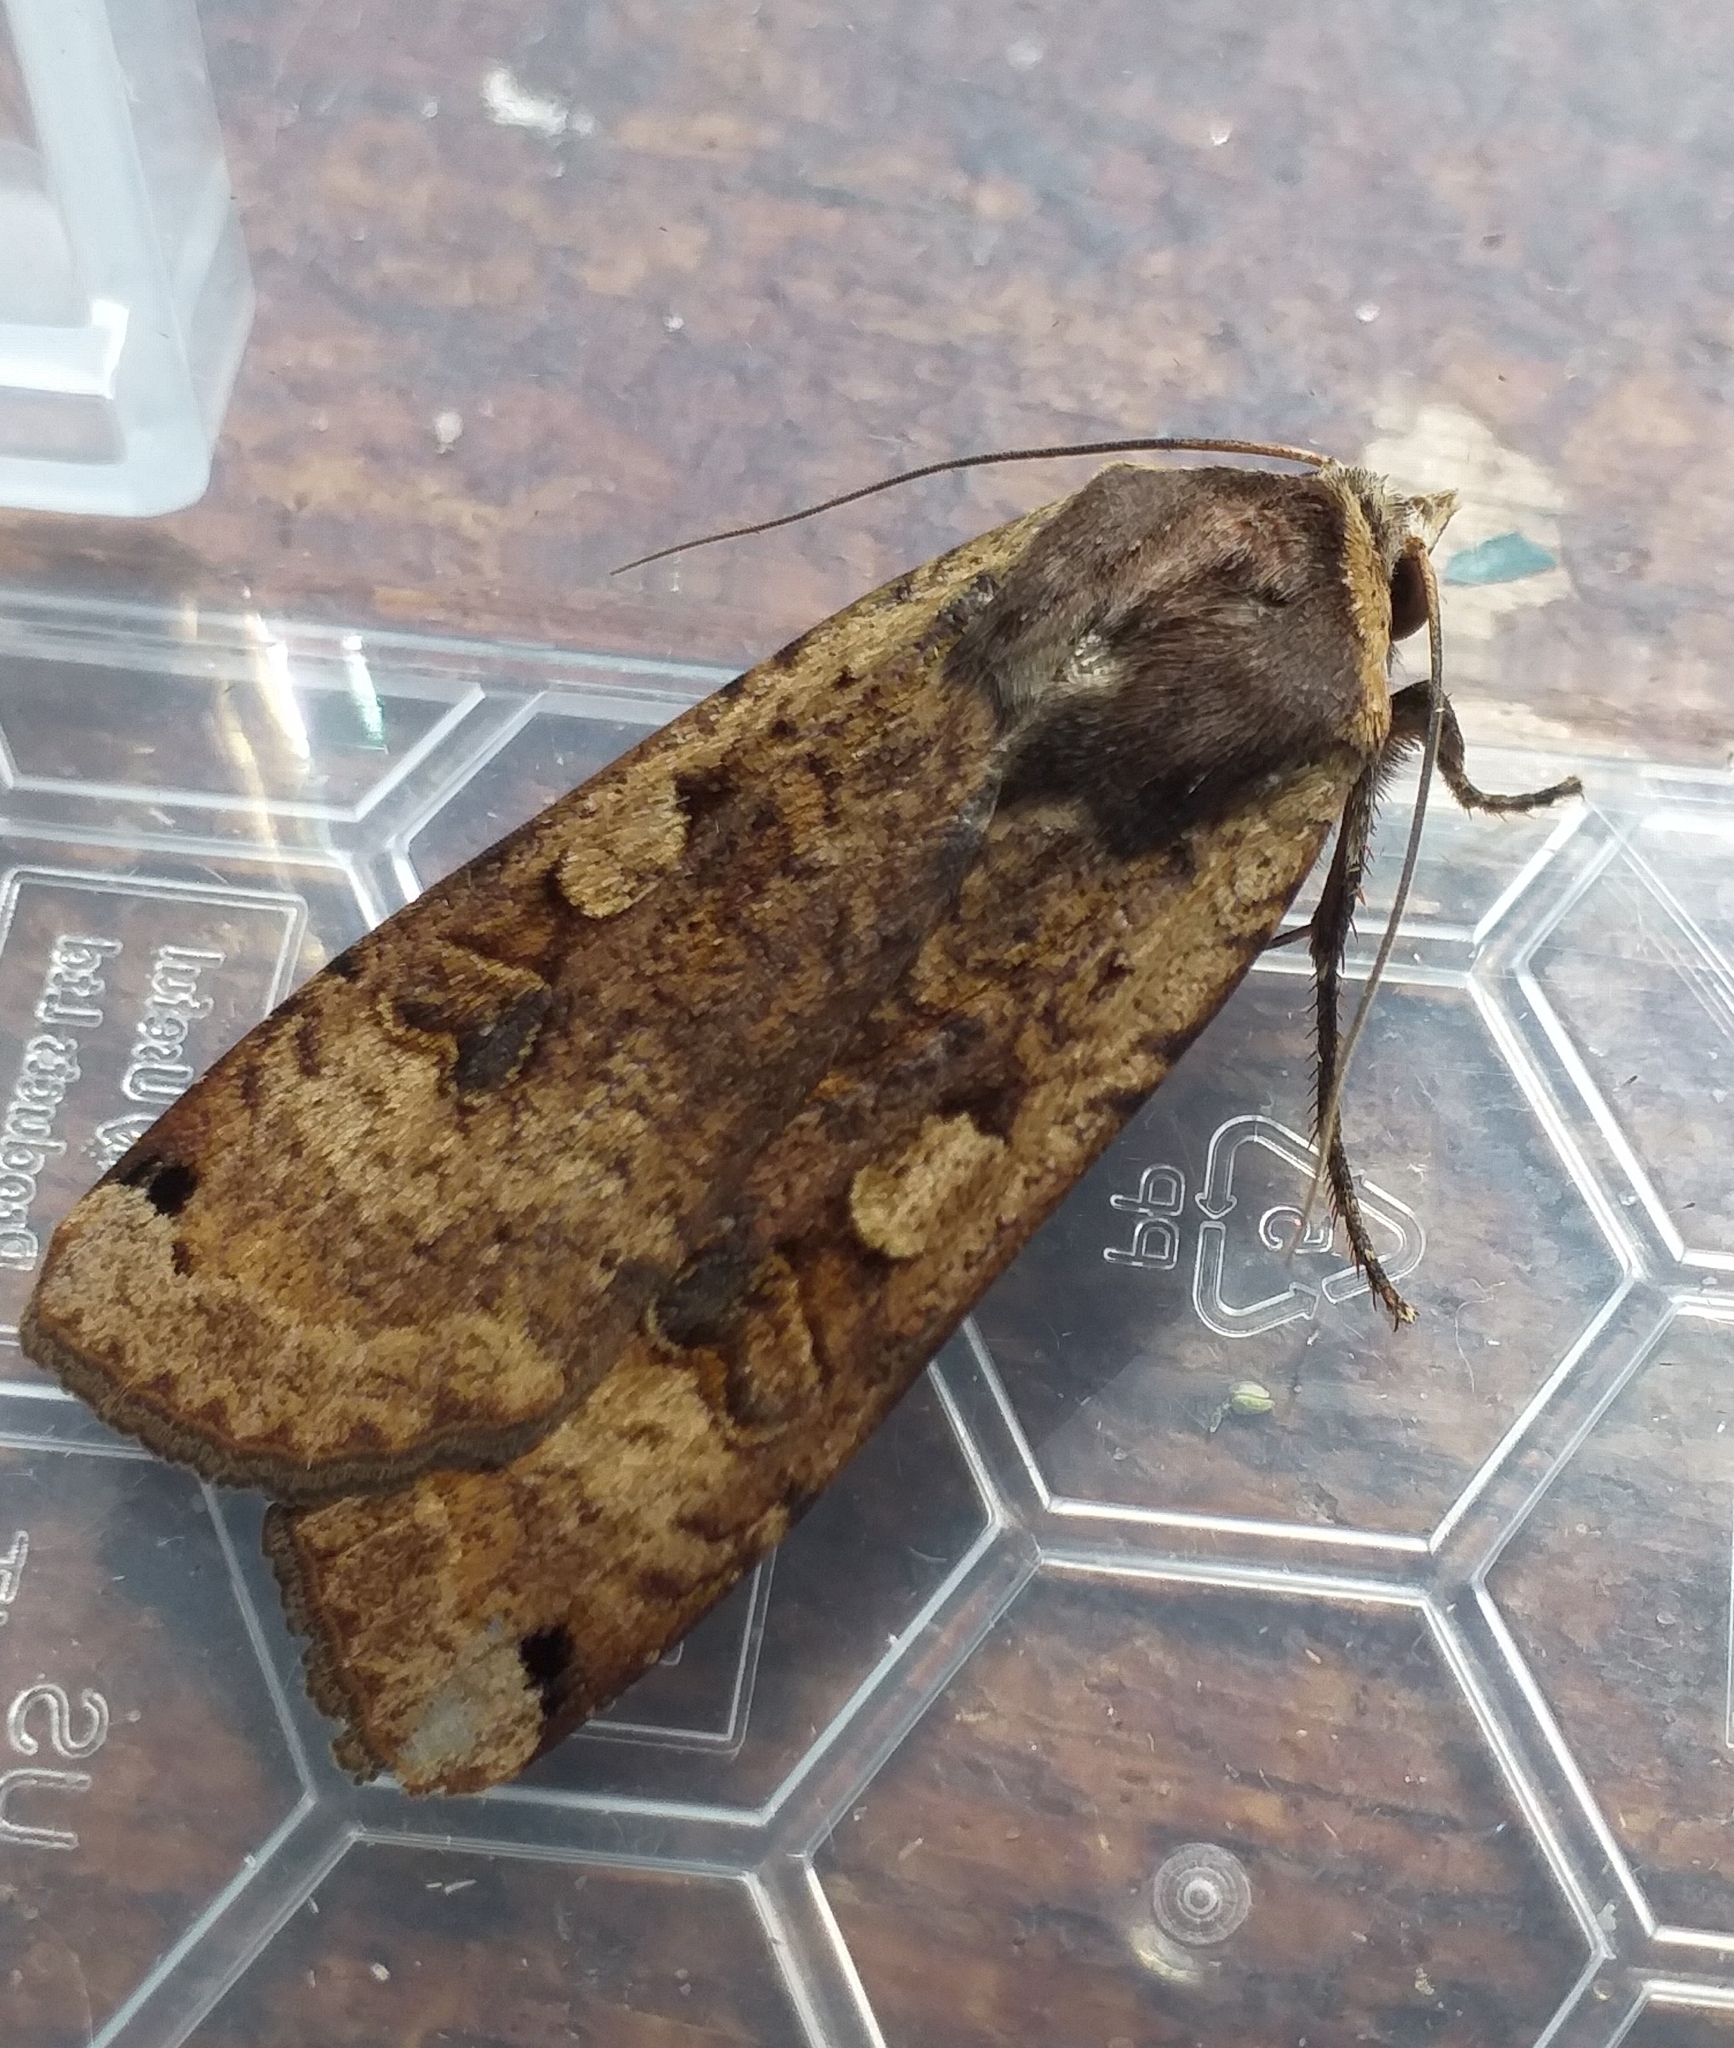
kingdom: Animalia
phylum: Arthropoda
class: Insecta
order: Lepidoptera
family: Noctuidae
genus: Noctua
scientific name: Noctua pronuba
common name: Large yellow underwing
